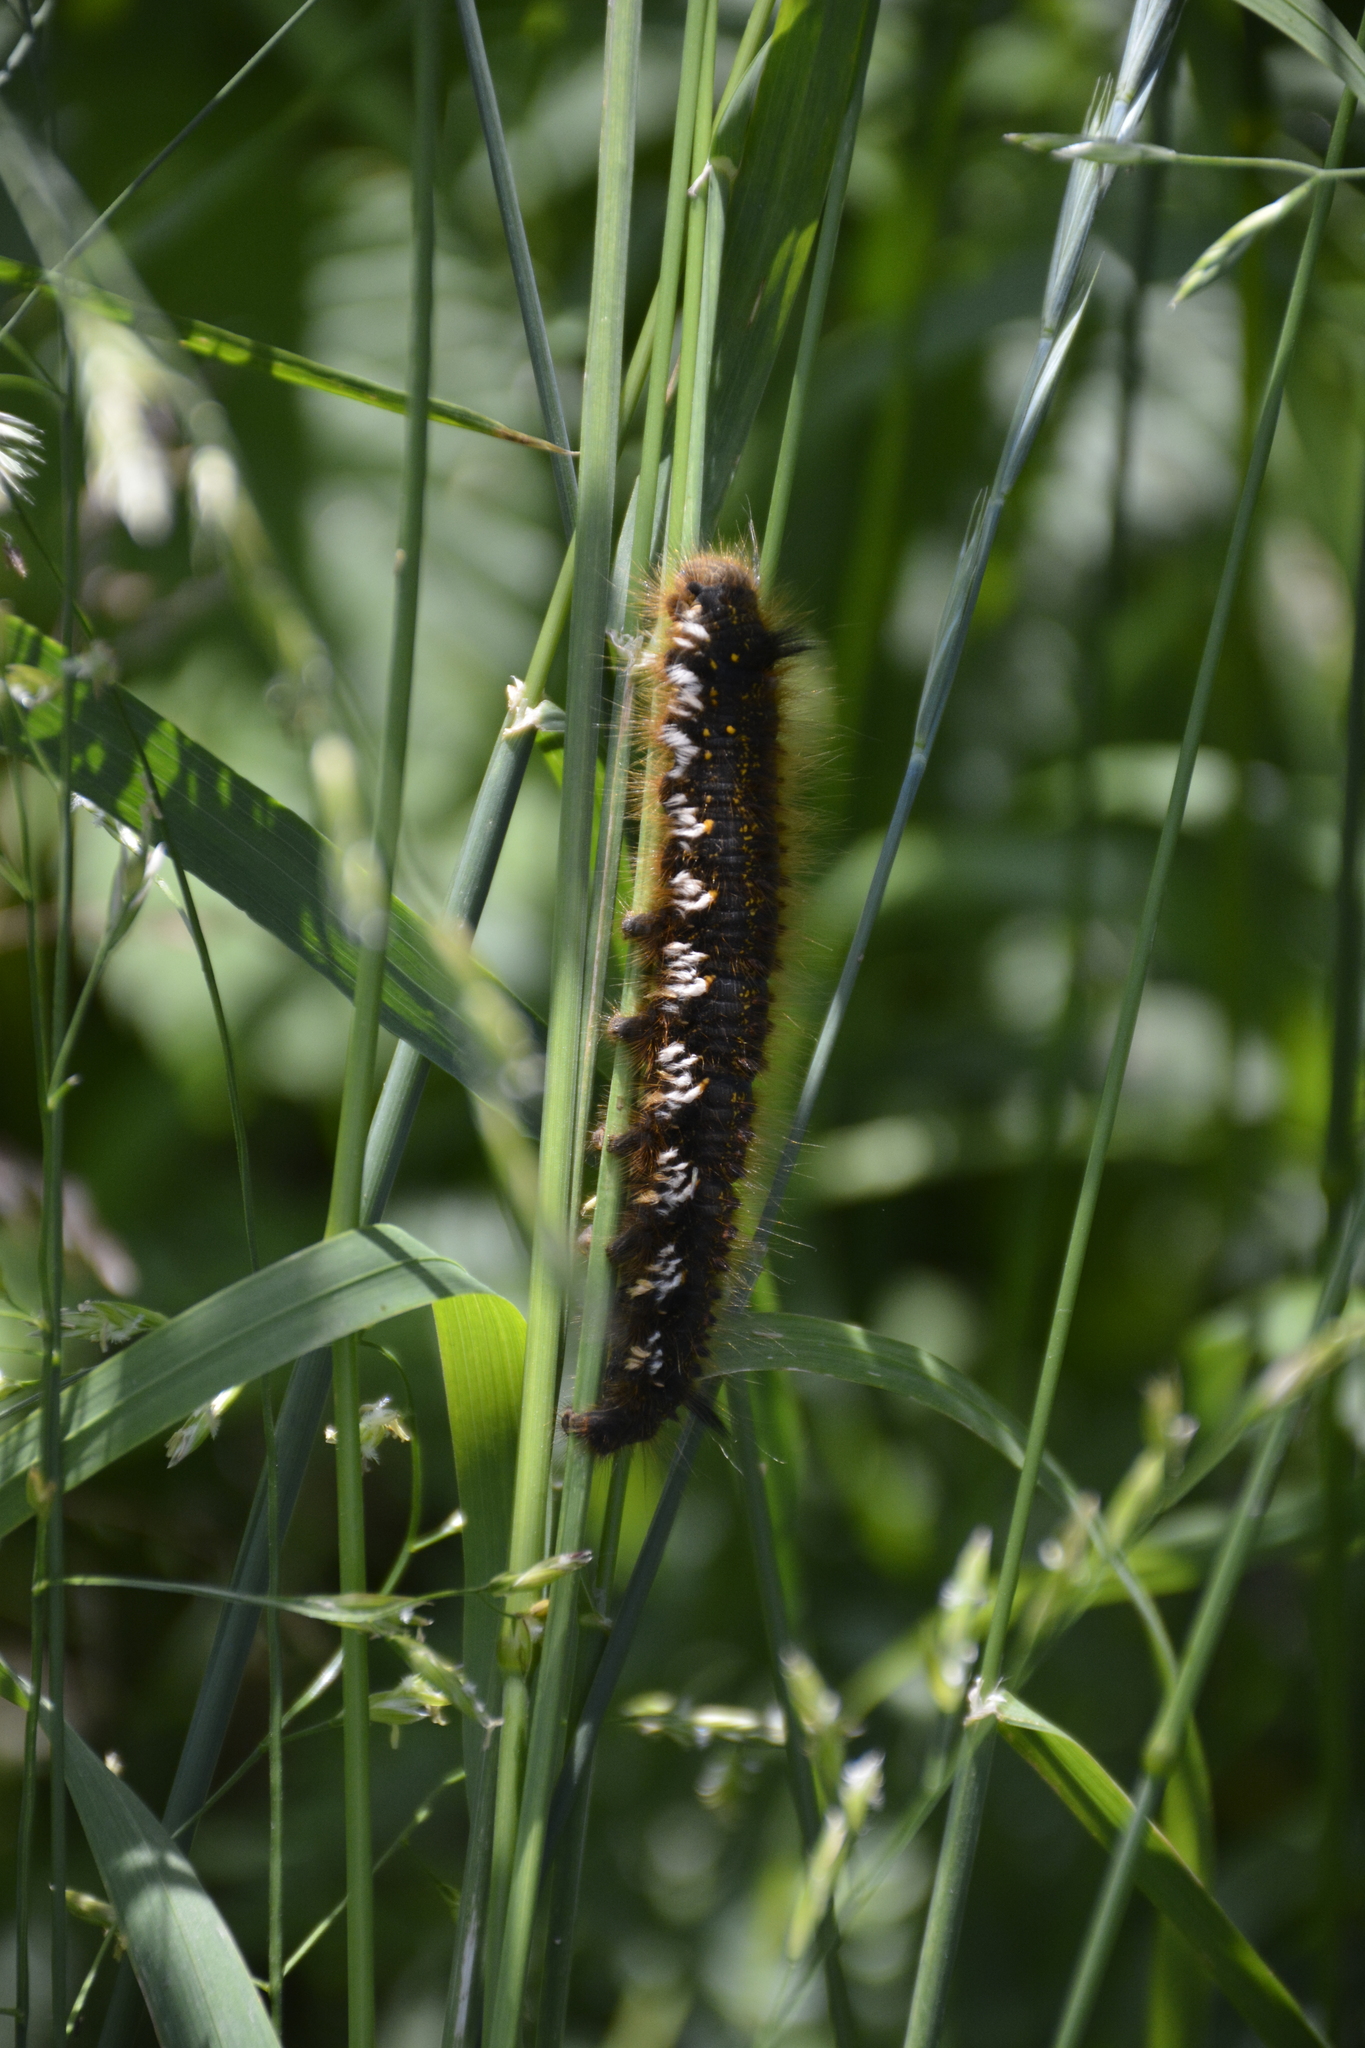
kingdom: Animalia
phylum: Arthropoda
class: Insecta
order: Lepidoptera
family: Lasiocampidae
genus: Euthrix
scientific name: Euthrix potatoria
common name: Drinker
